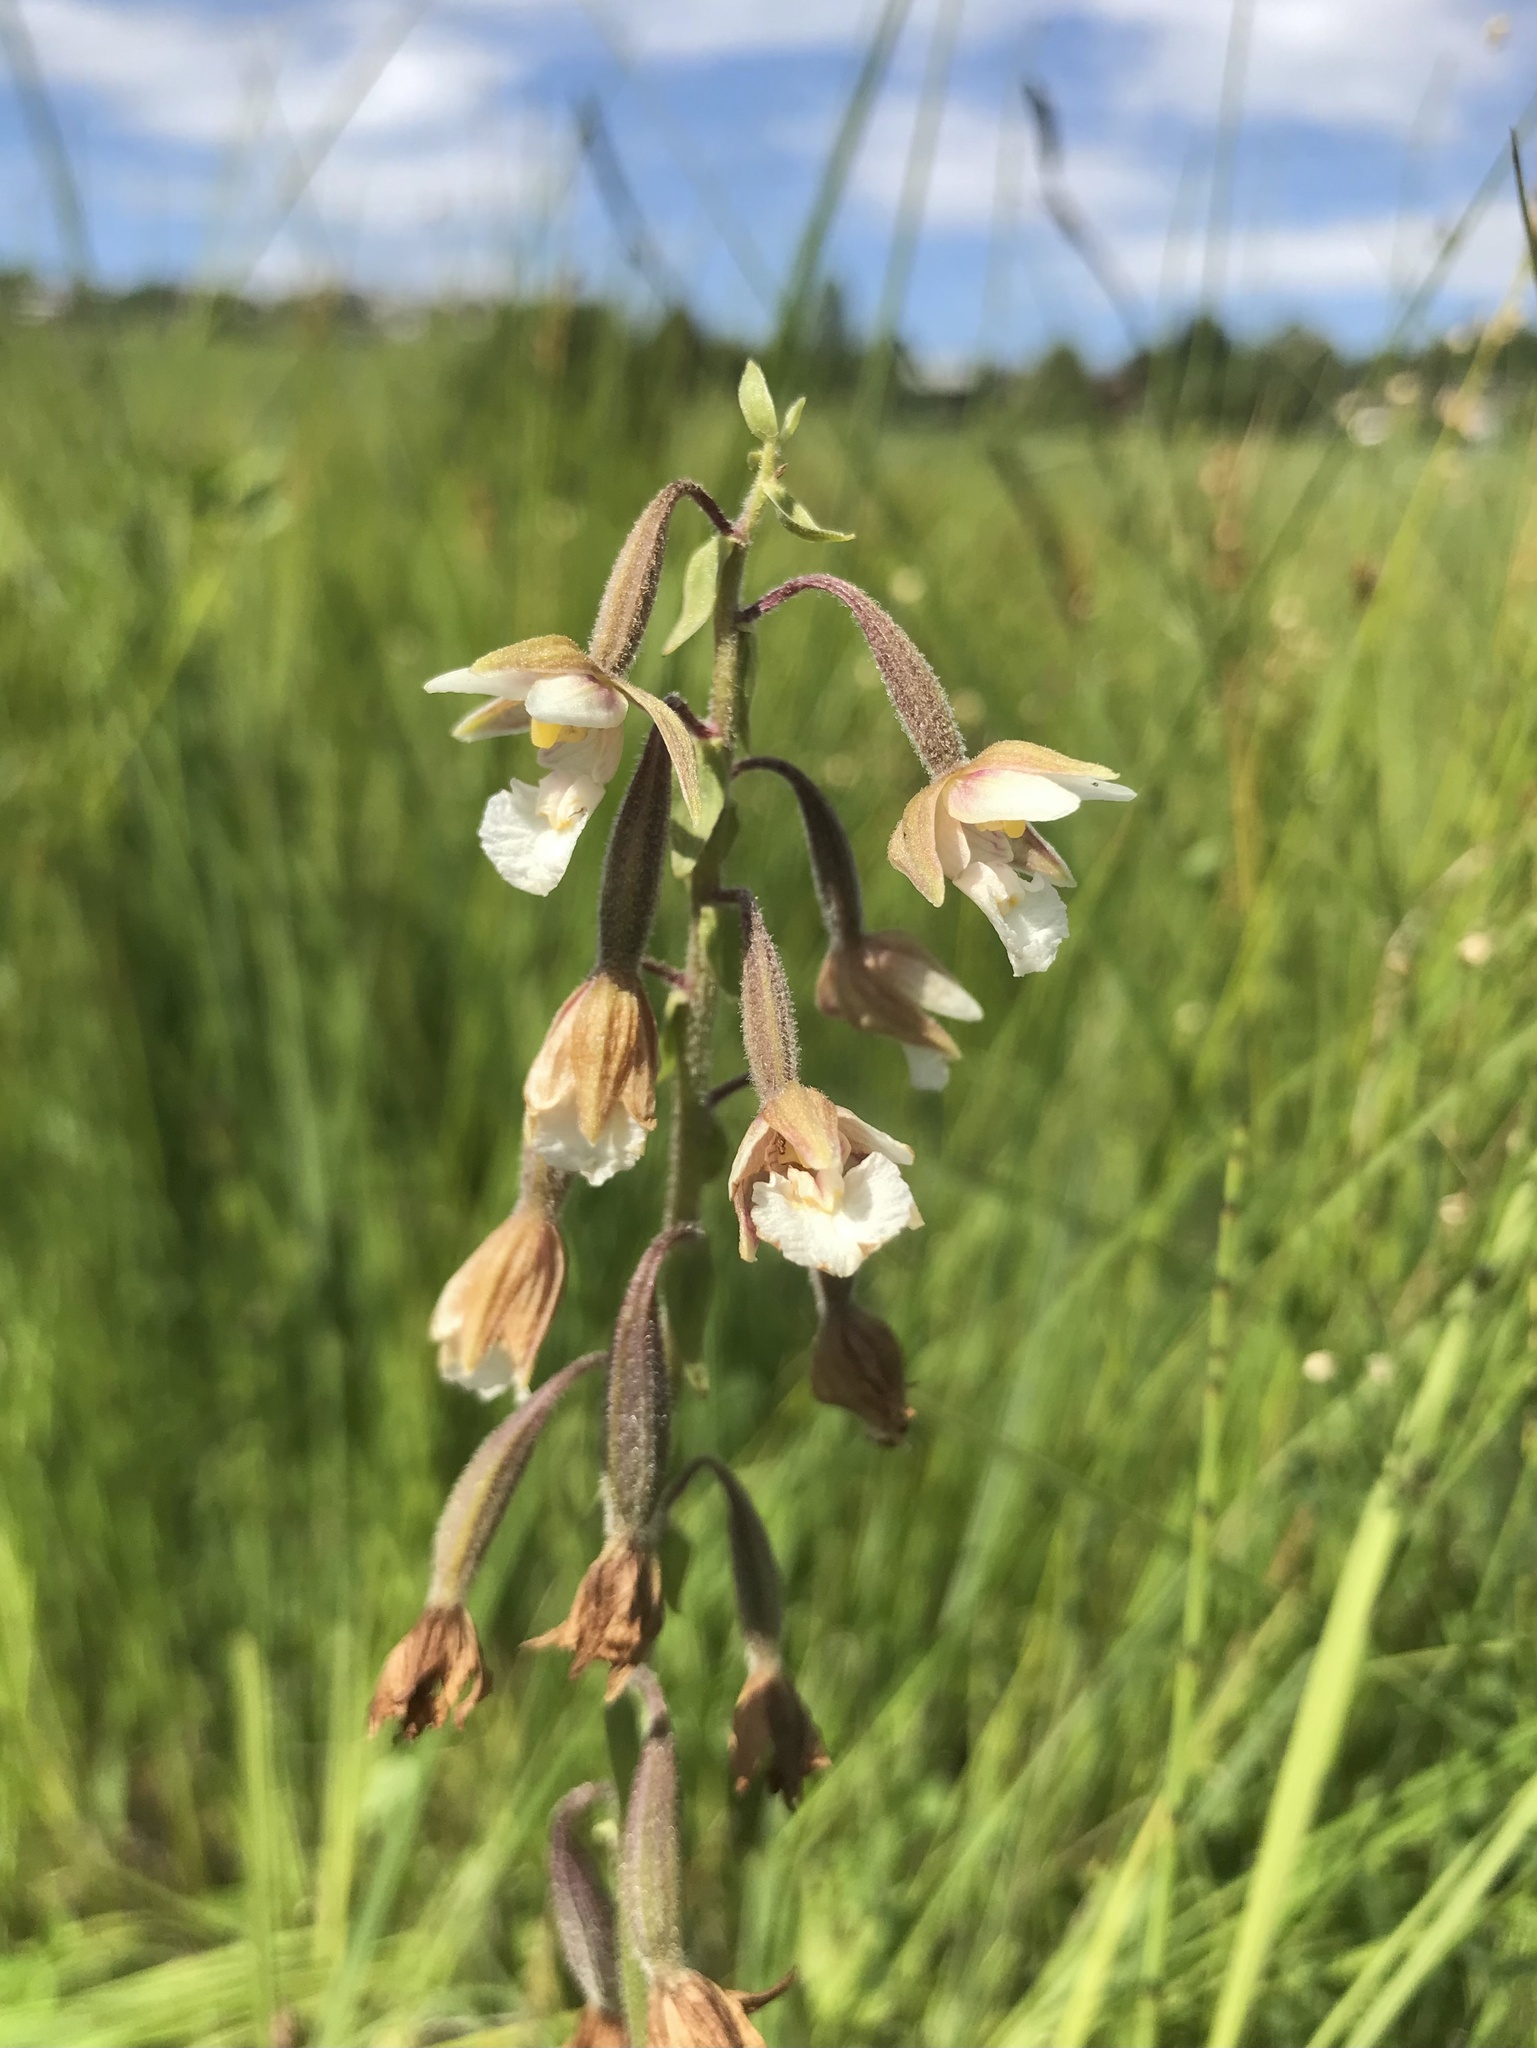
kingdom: Plantae
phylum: Tracheophyta
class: Liliopsida
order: Asparagales
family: Orchidaceae
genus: Epipactis
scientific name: Epipactis palustris
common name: Marsh helleborine
